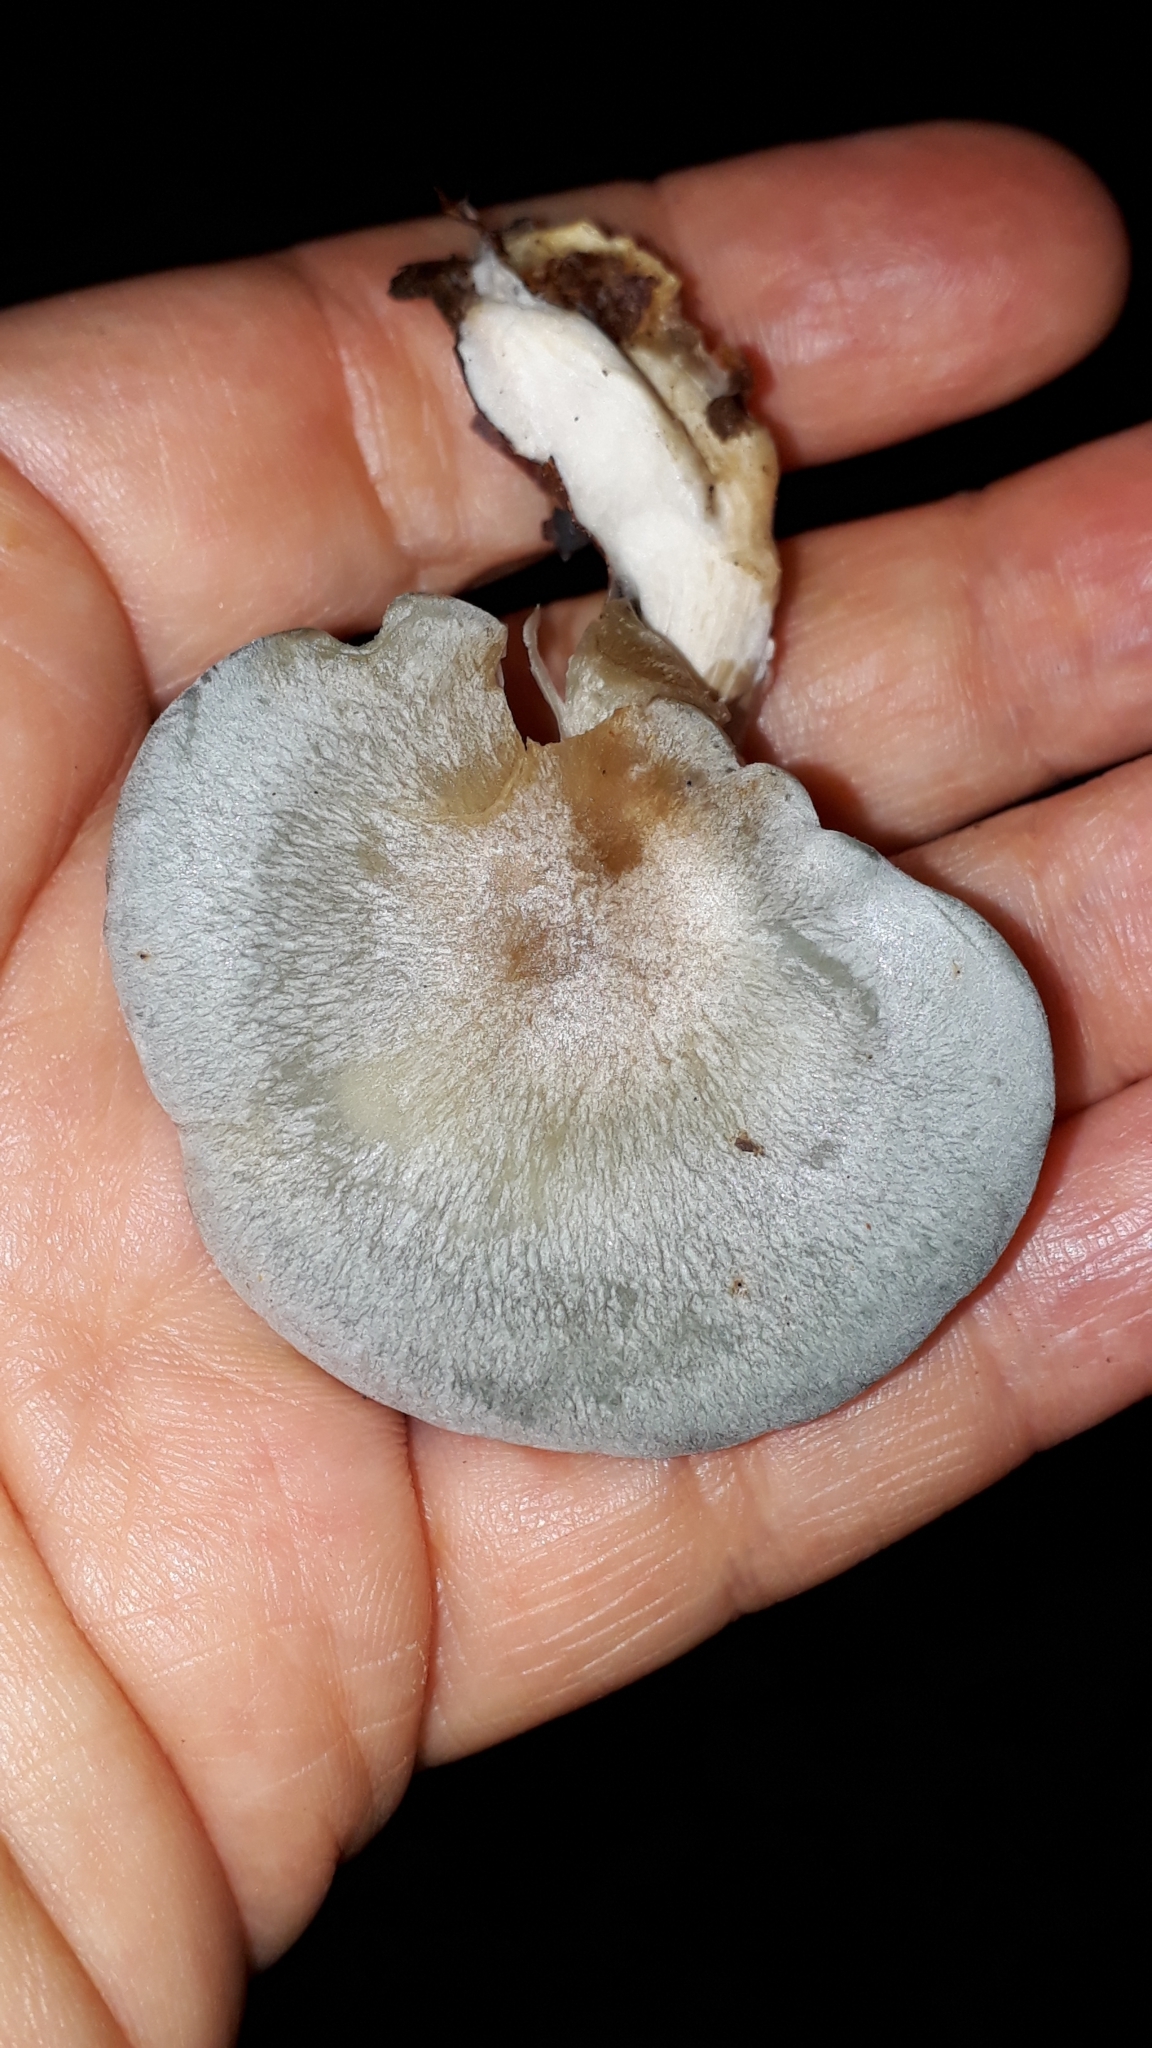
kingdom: Fungi
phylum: Basidiomycota
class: Agaricomycetes
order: Agaricales
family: Tricholomataceae
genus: Collybia
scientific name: Collybia
